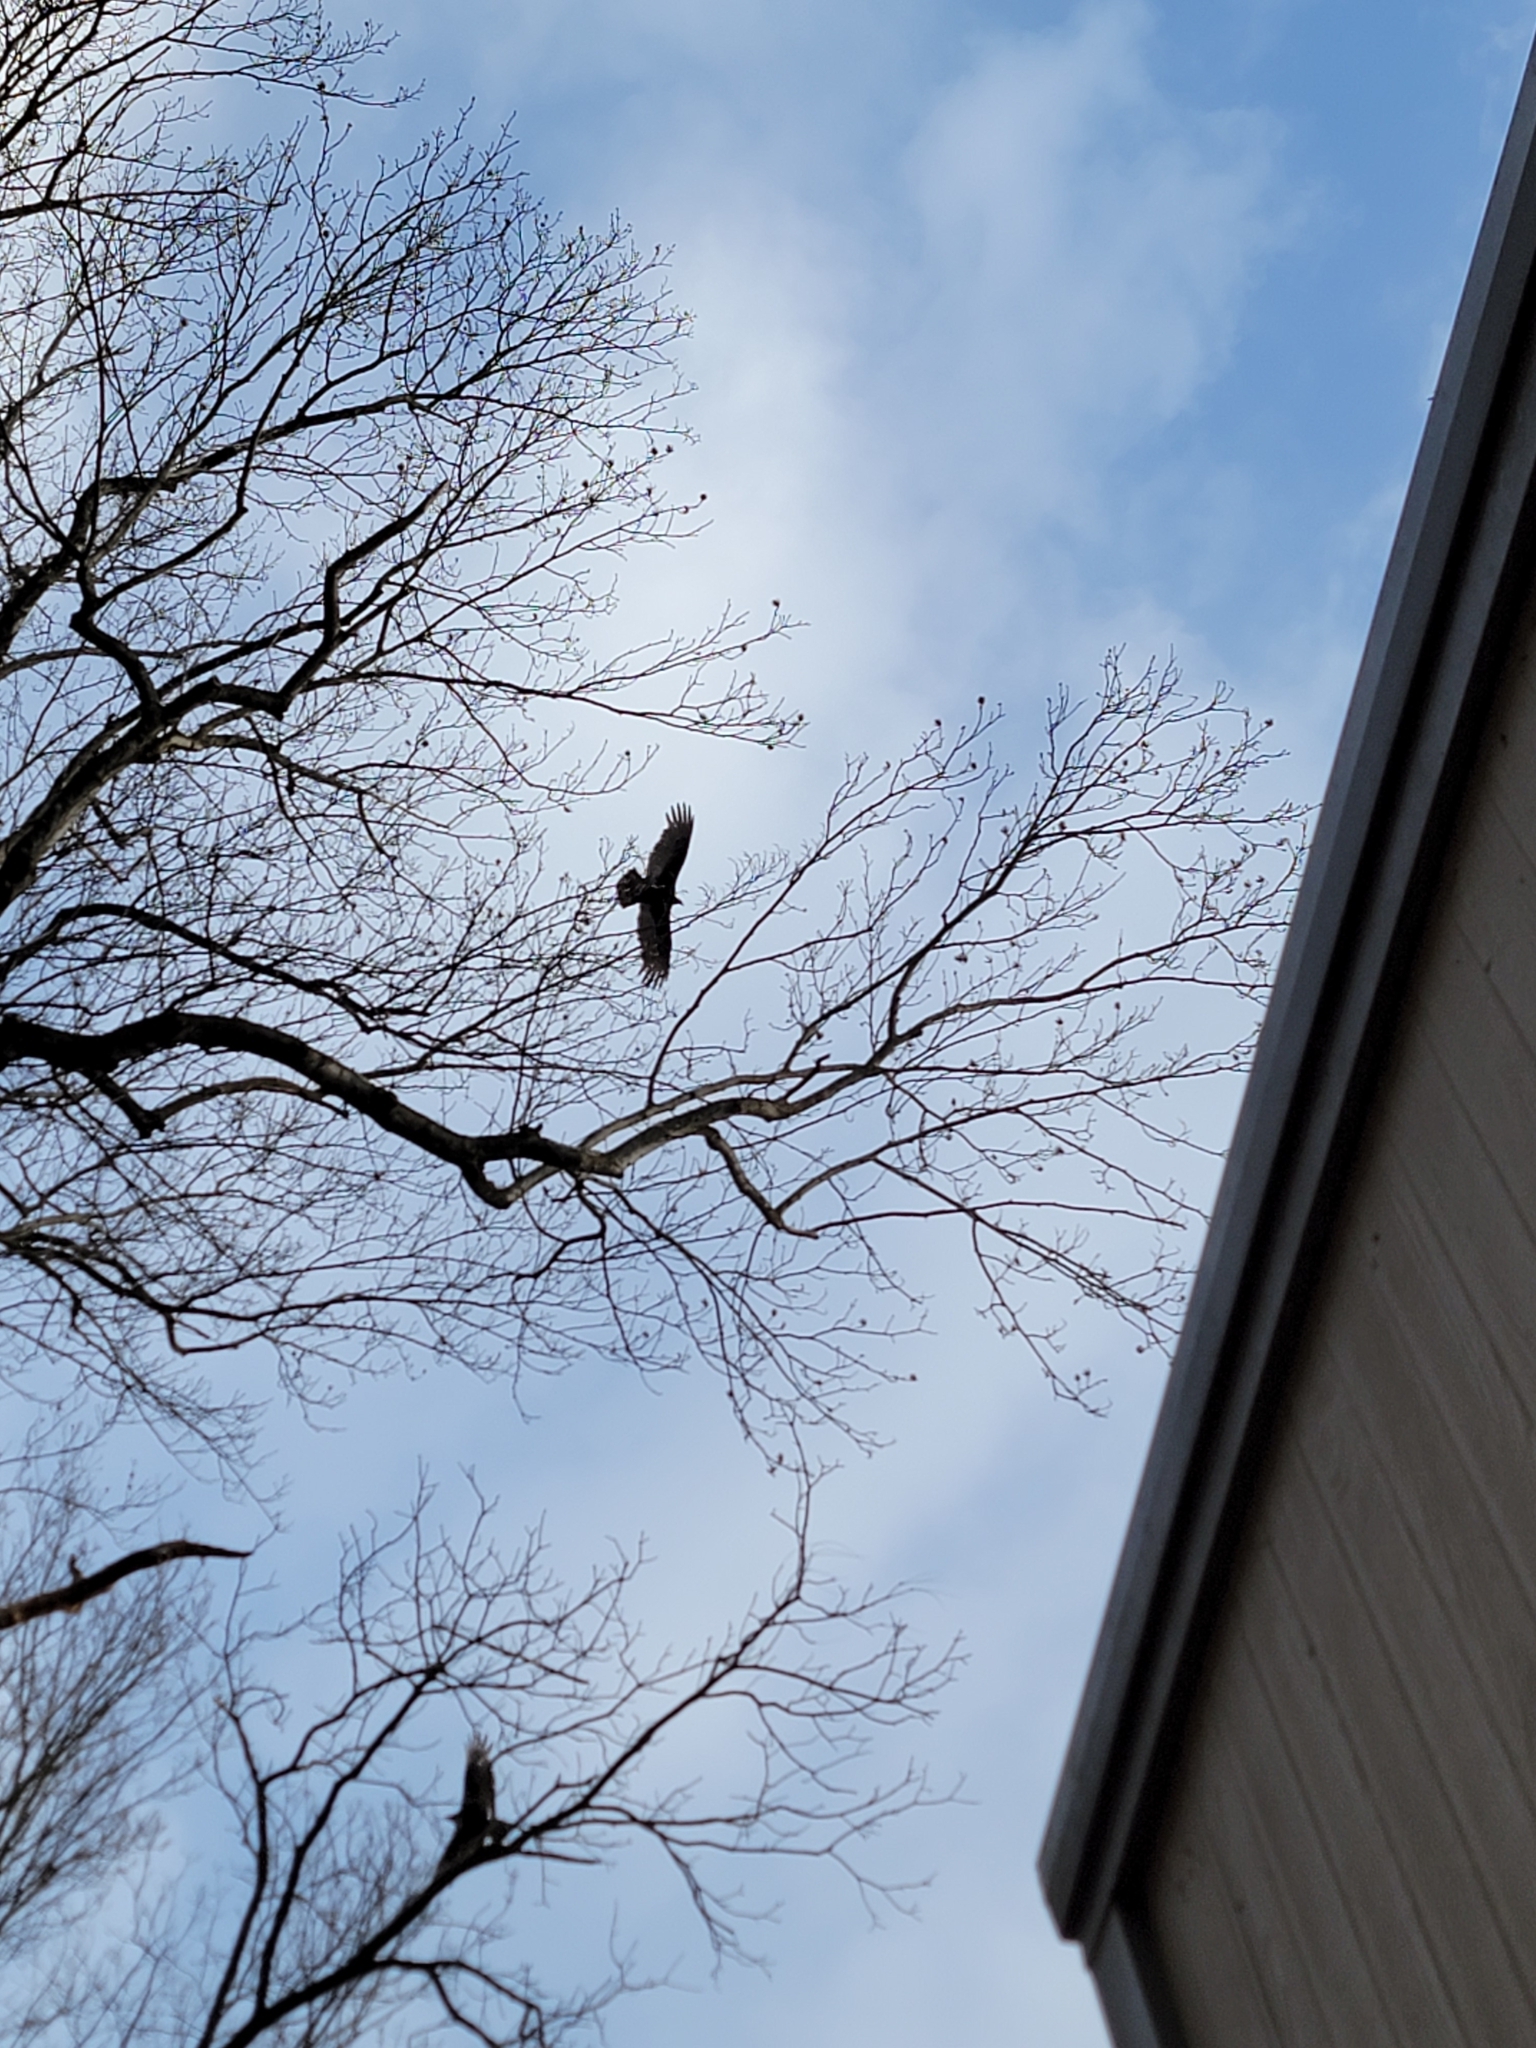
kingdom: Animalia
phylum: Chordata
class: Aves
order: Accipitriformes
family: Cathartidae
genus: Cathartes
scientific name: Cathartes aura
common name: Turkey vulture
